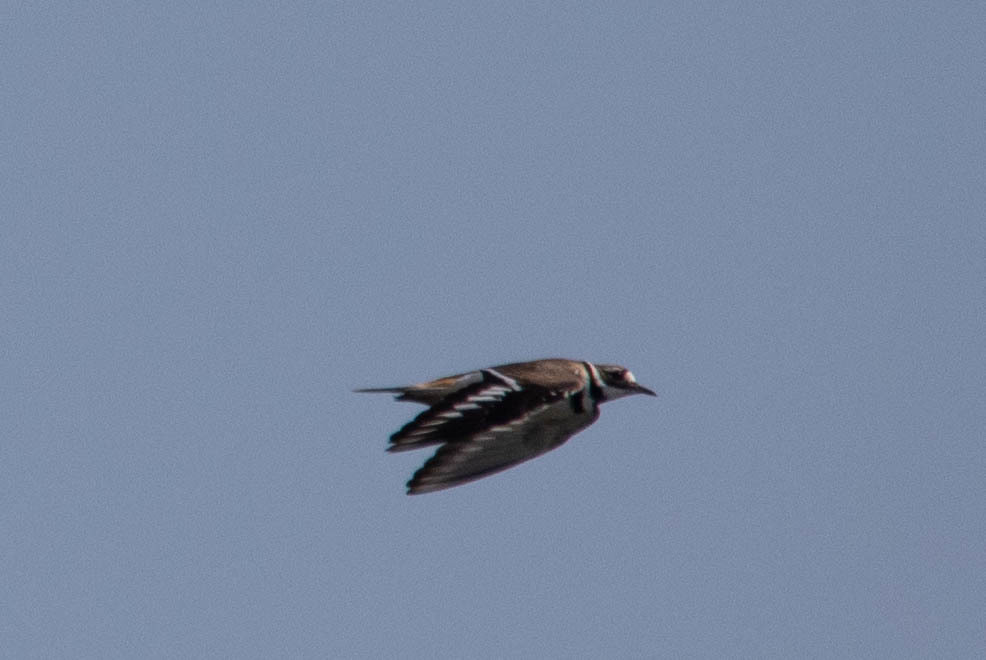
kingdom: Animalia
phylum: Chordata
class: Aves
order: Charadriiformes
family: Charadriidae
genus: Charadrius
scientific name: Charadrius vociferus
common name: Killdeer
